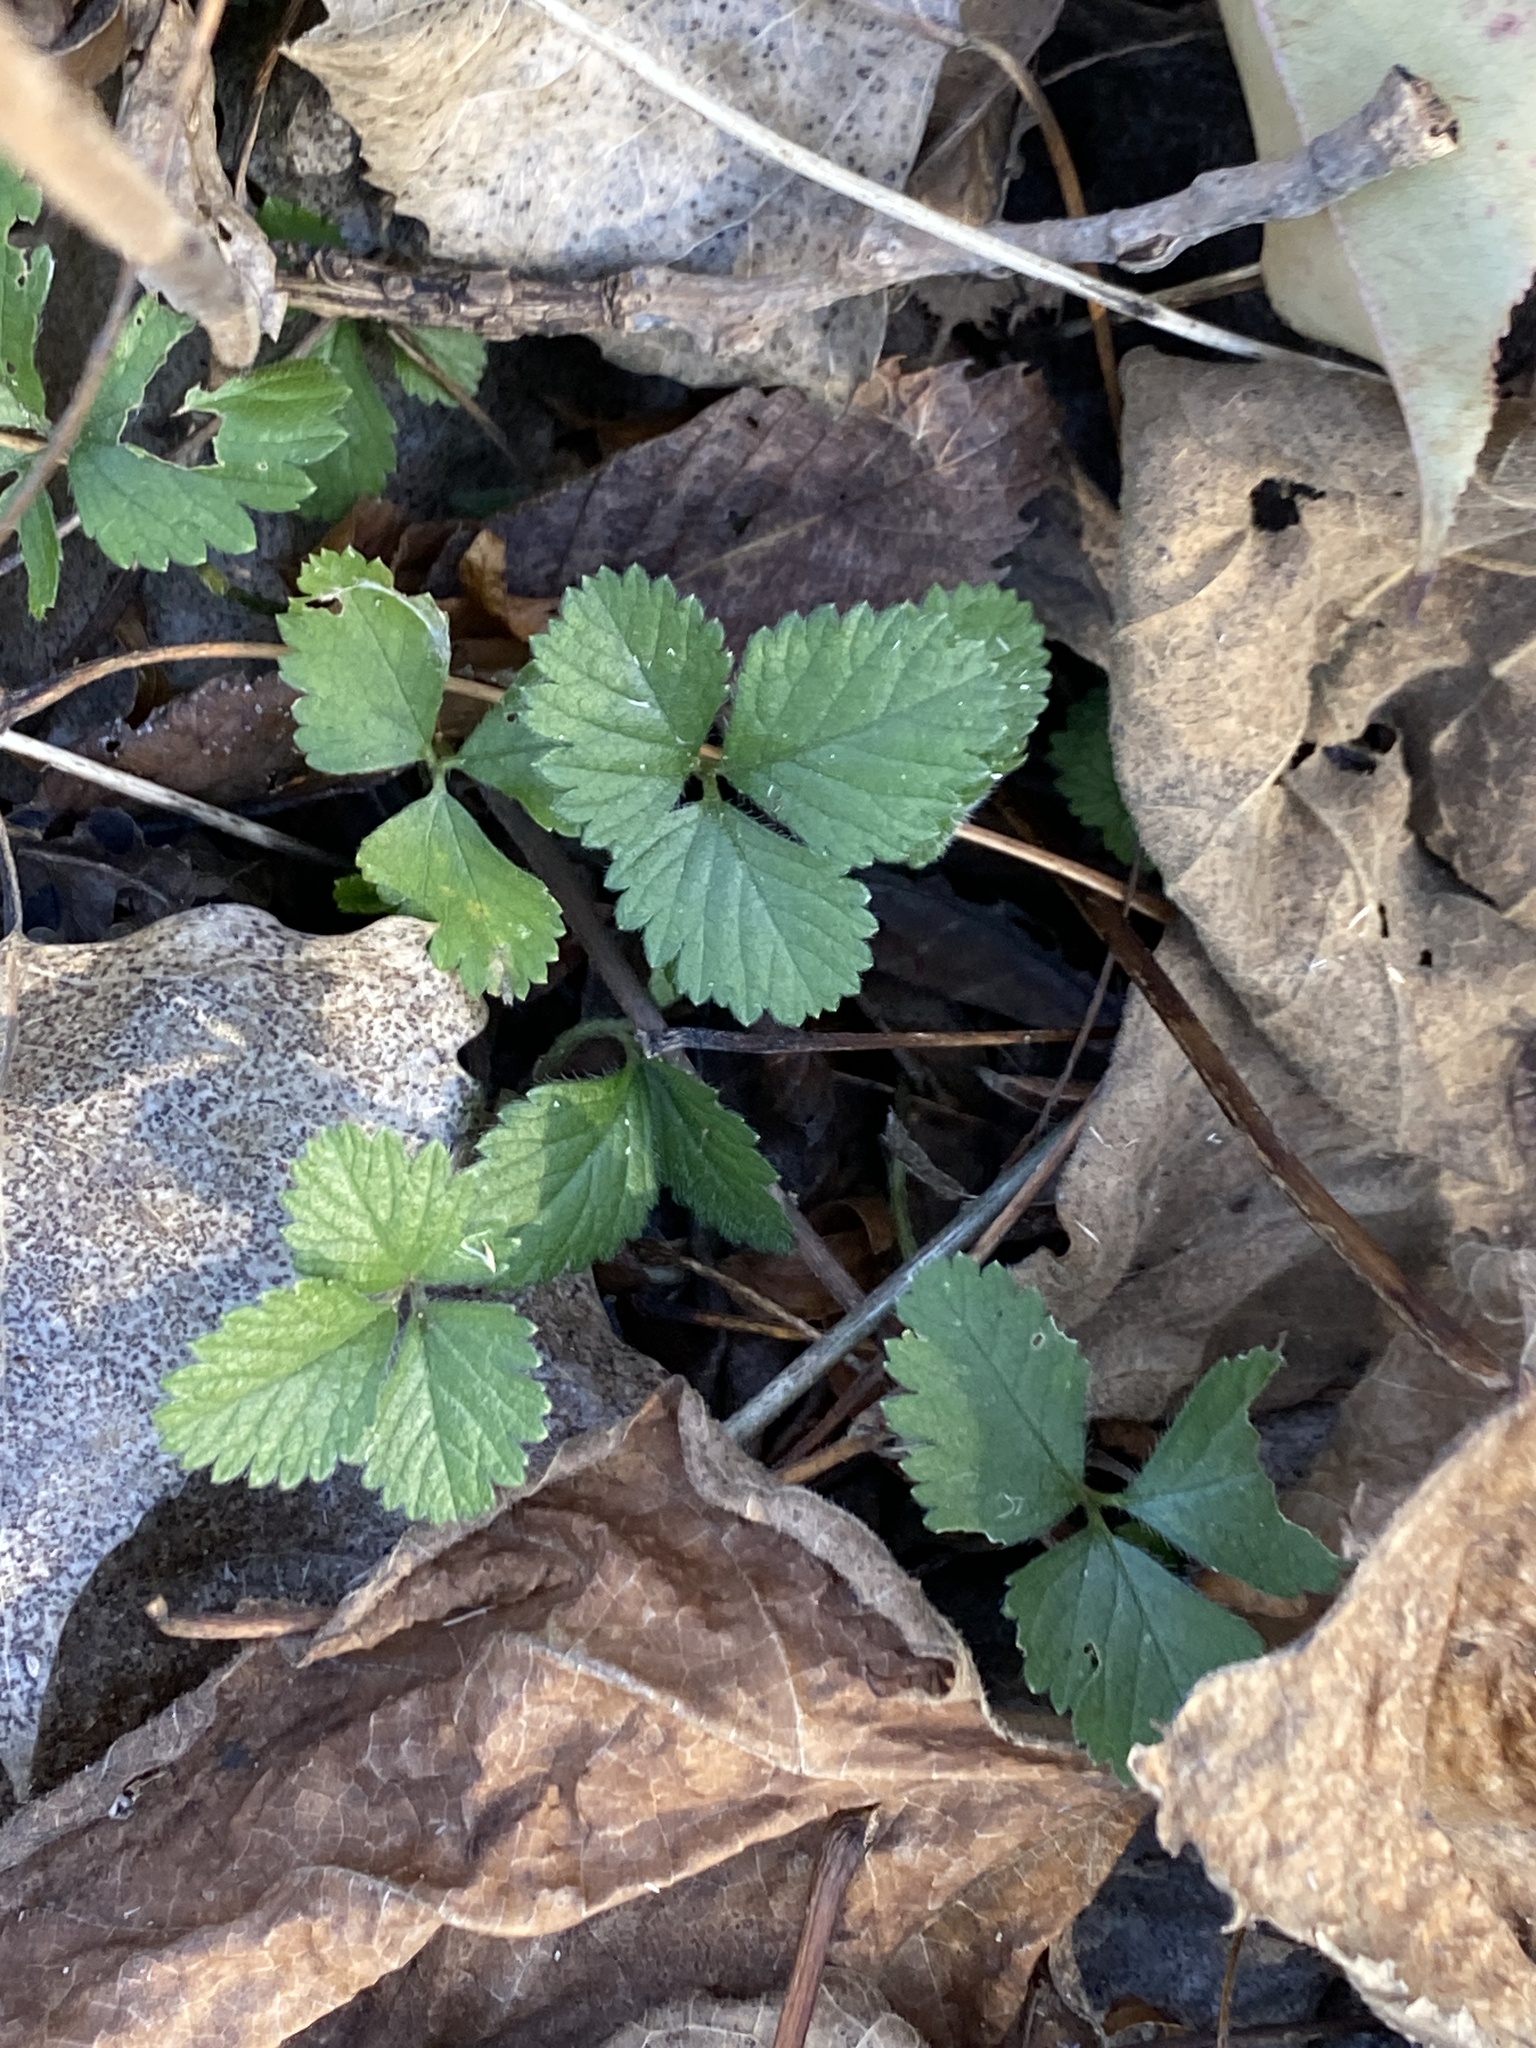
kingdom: Plantae
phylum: Tracheophyta
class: Magnoliopsida
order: Rosales
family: Rosaceae
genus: Potentilla
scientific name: Potentilla indica
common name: Yellow-flowered strawberry
